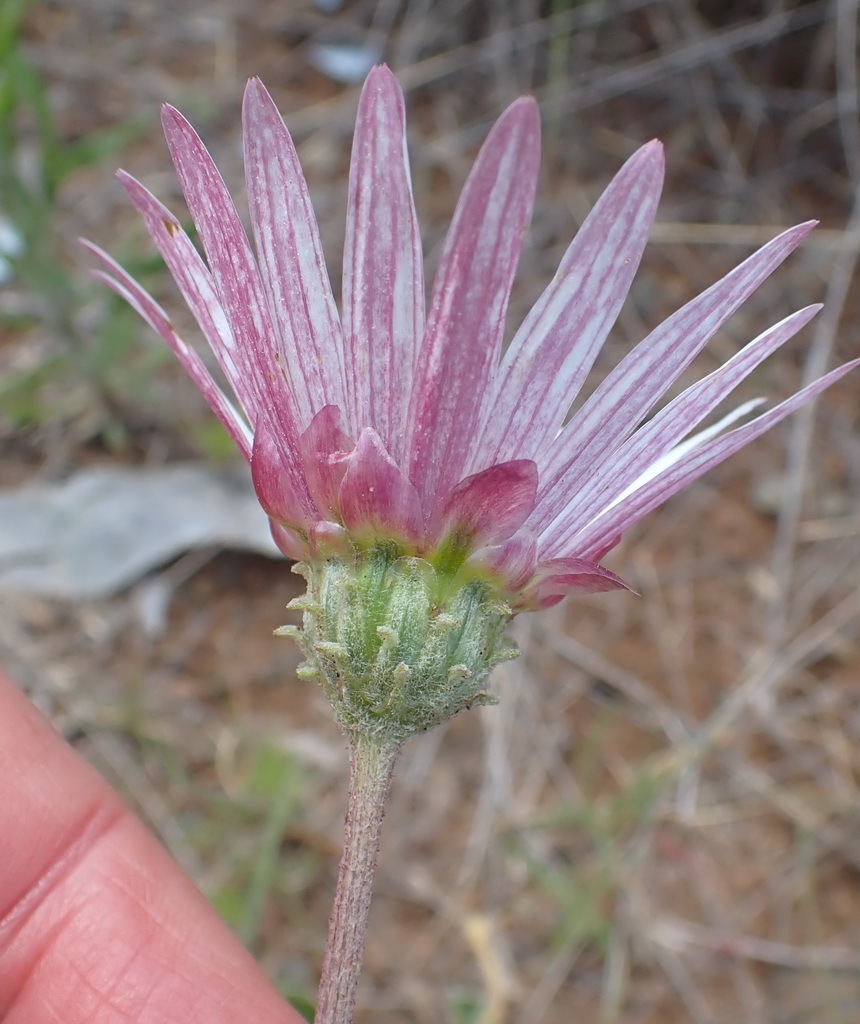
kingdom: Plantae
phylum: Tracheophyta
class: Magnoliopsida
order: Asterales
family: Asteraceae
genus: Arctotis
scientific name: Arctotis venusta
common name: African daisy
